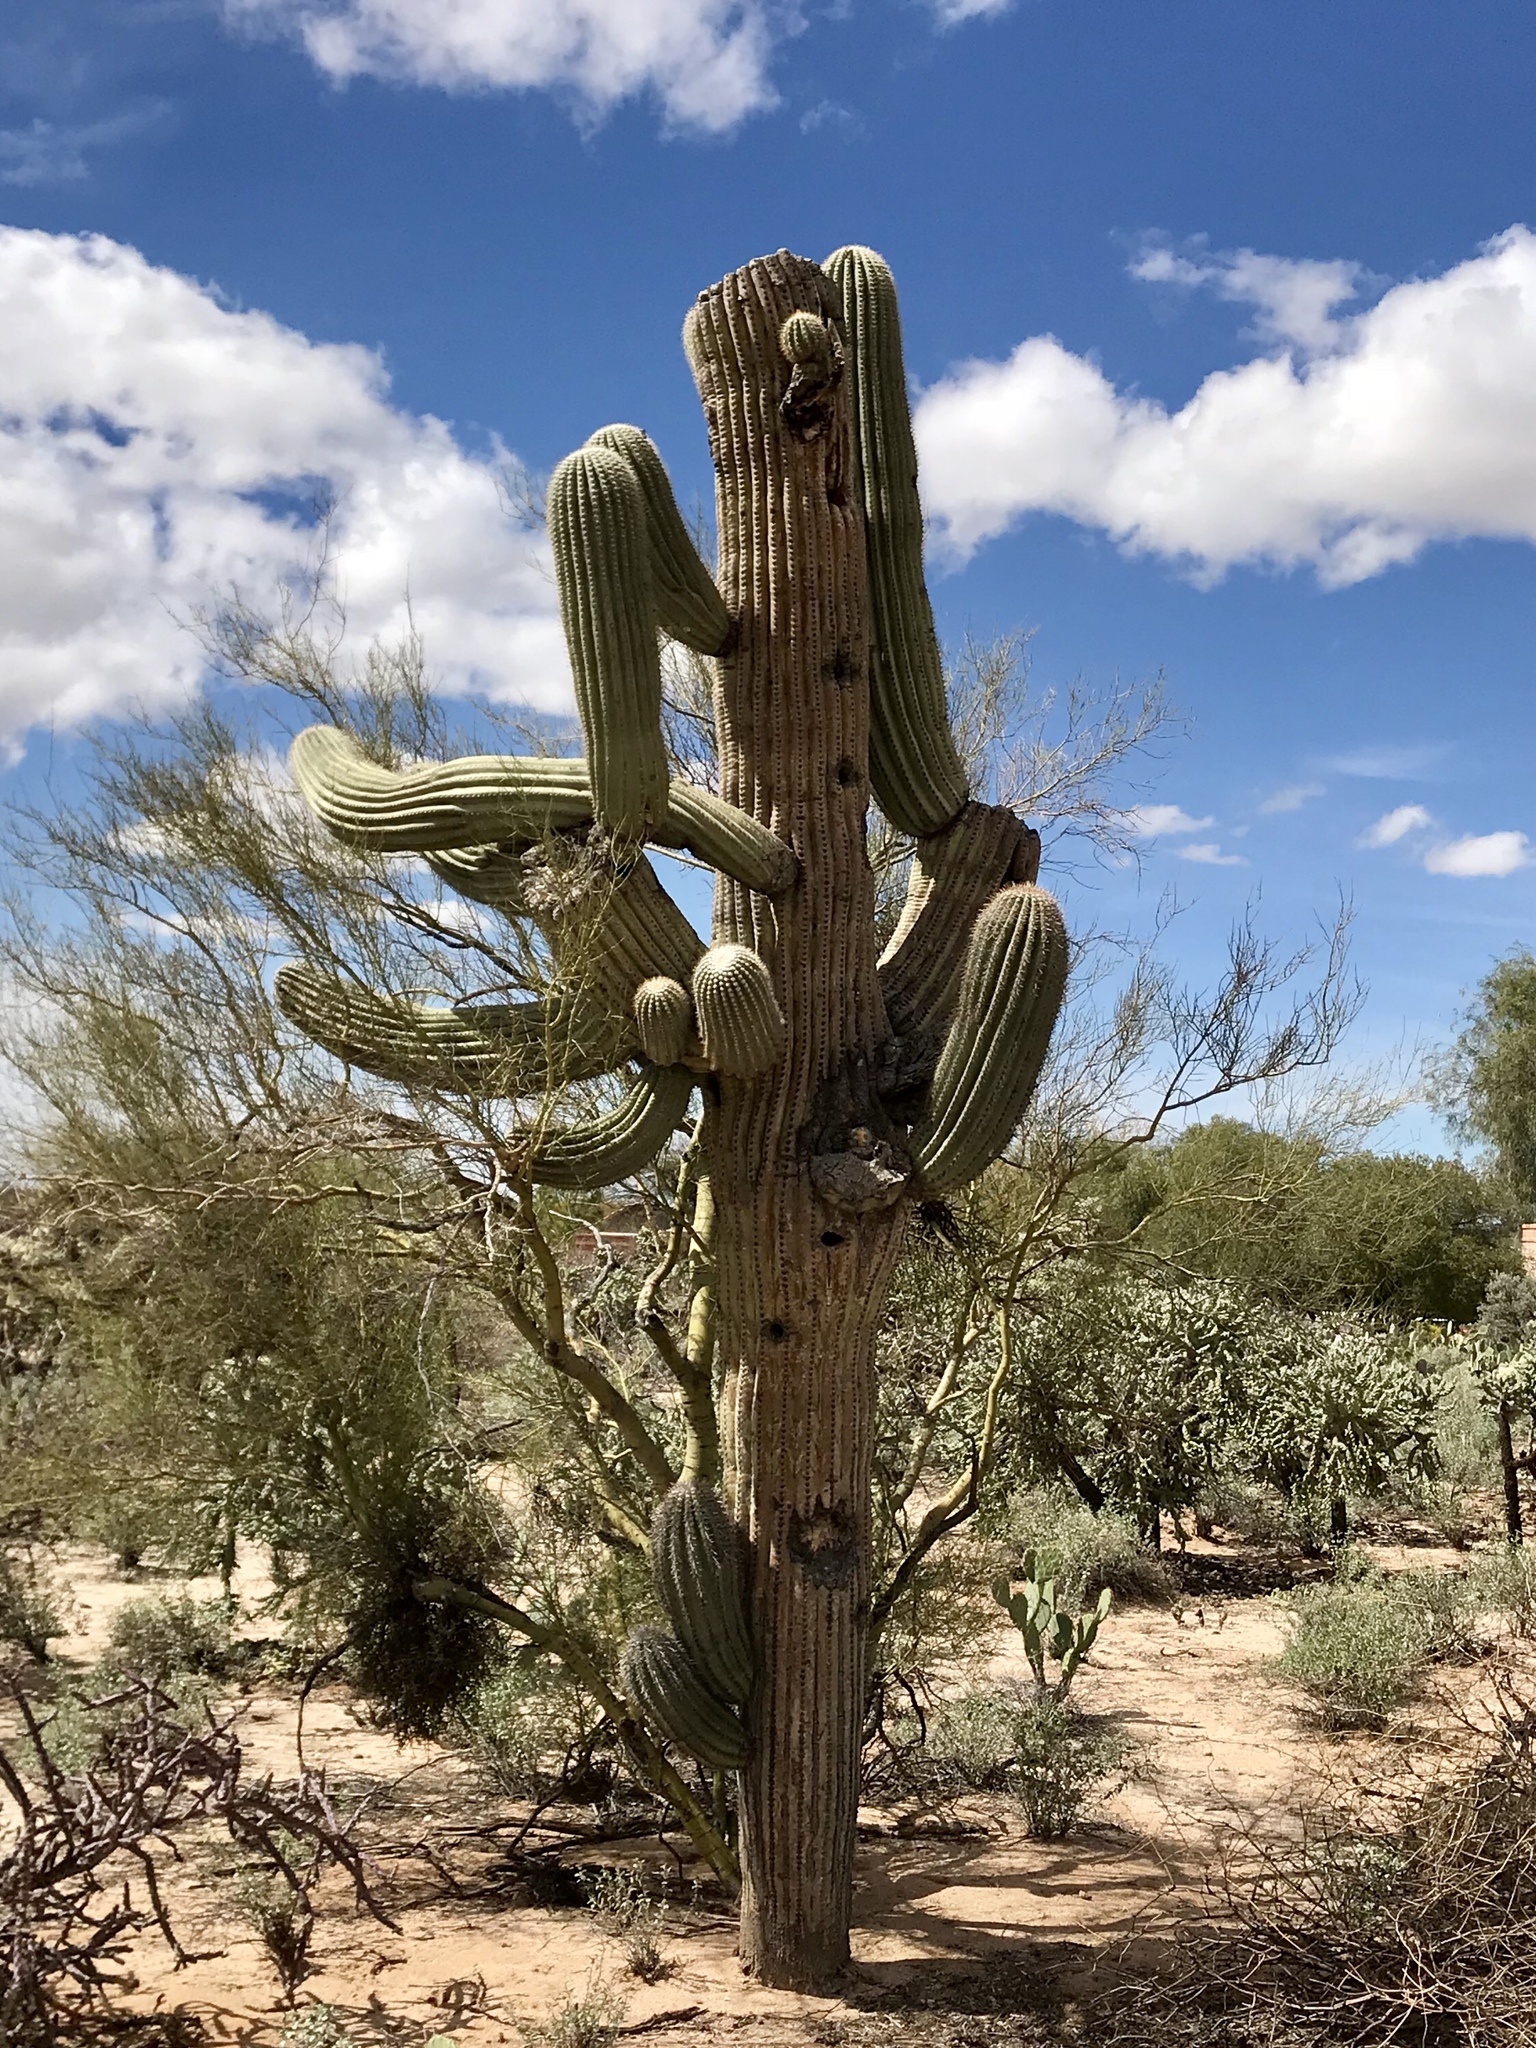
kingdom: Plantae
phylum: Tracheophyta
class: Magnoliopsida
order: Caryophyllales
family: Cactaceae
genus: Carnegiea
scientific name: Carnegiea gigantea
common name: Saguaro
